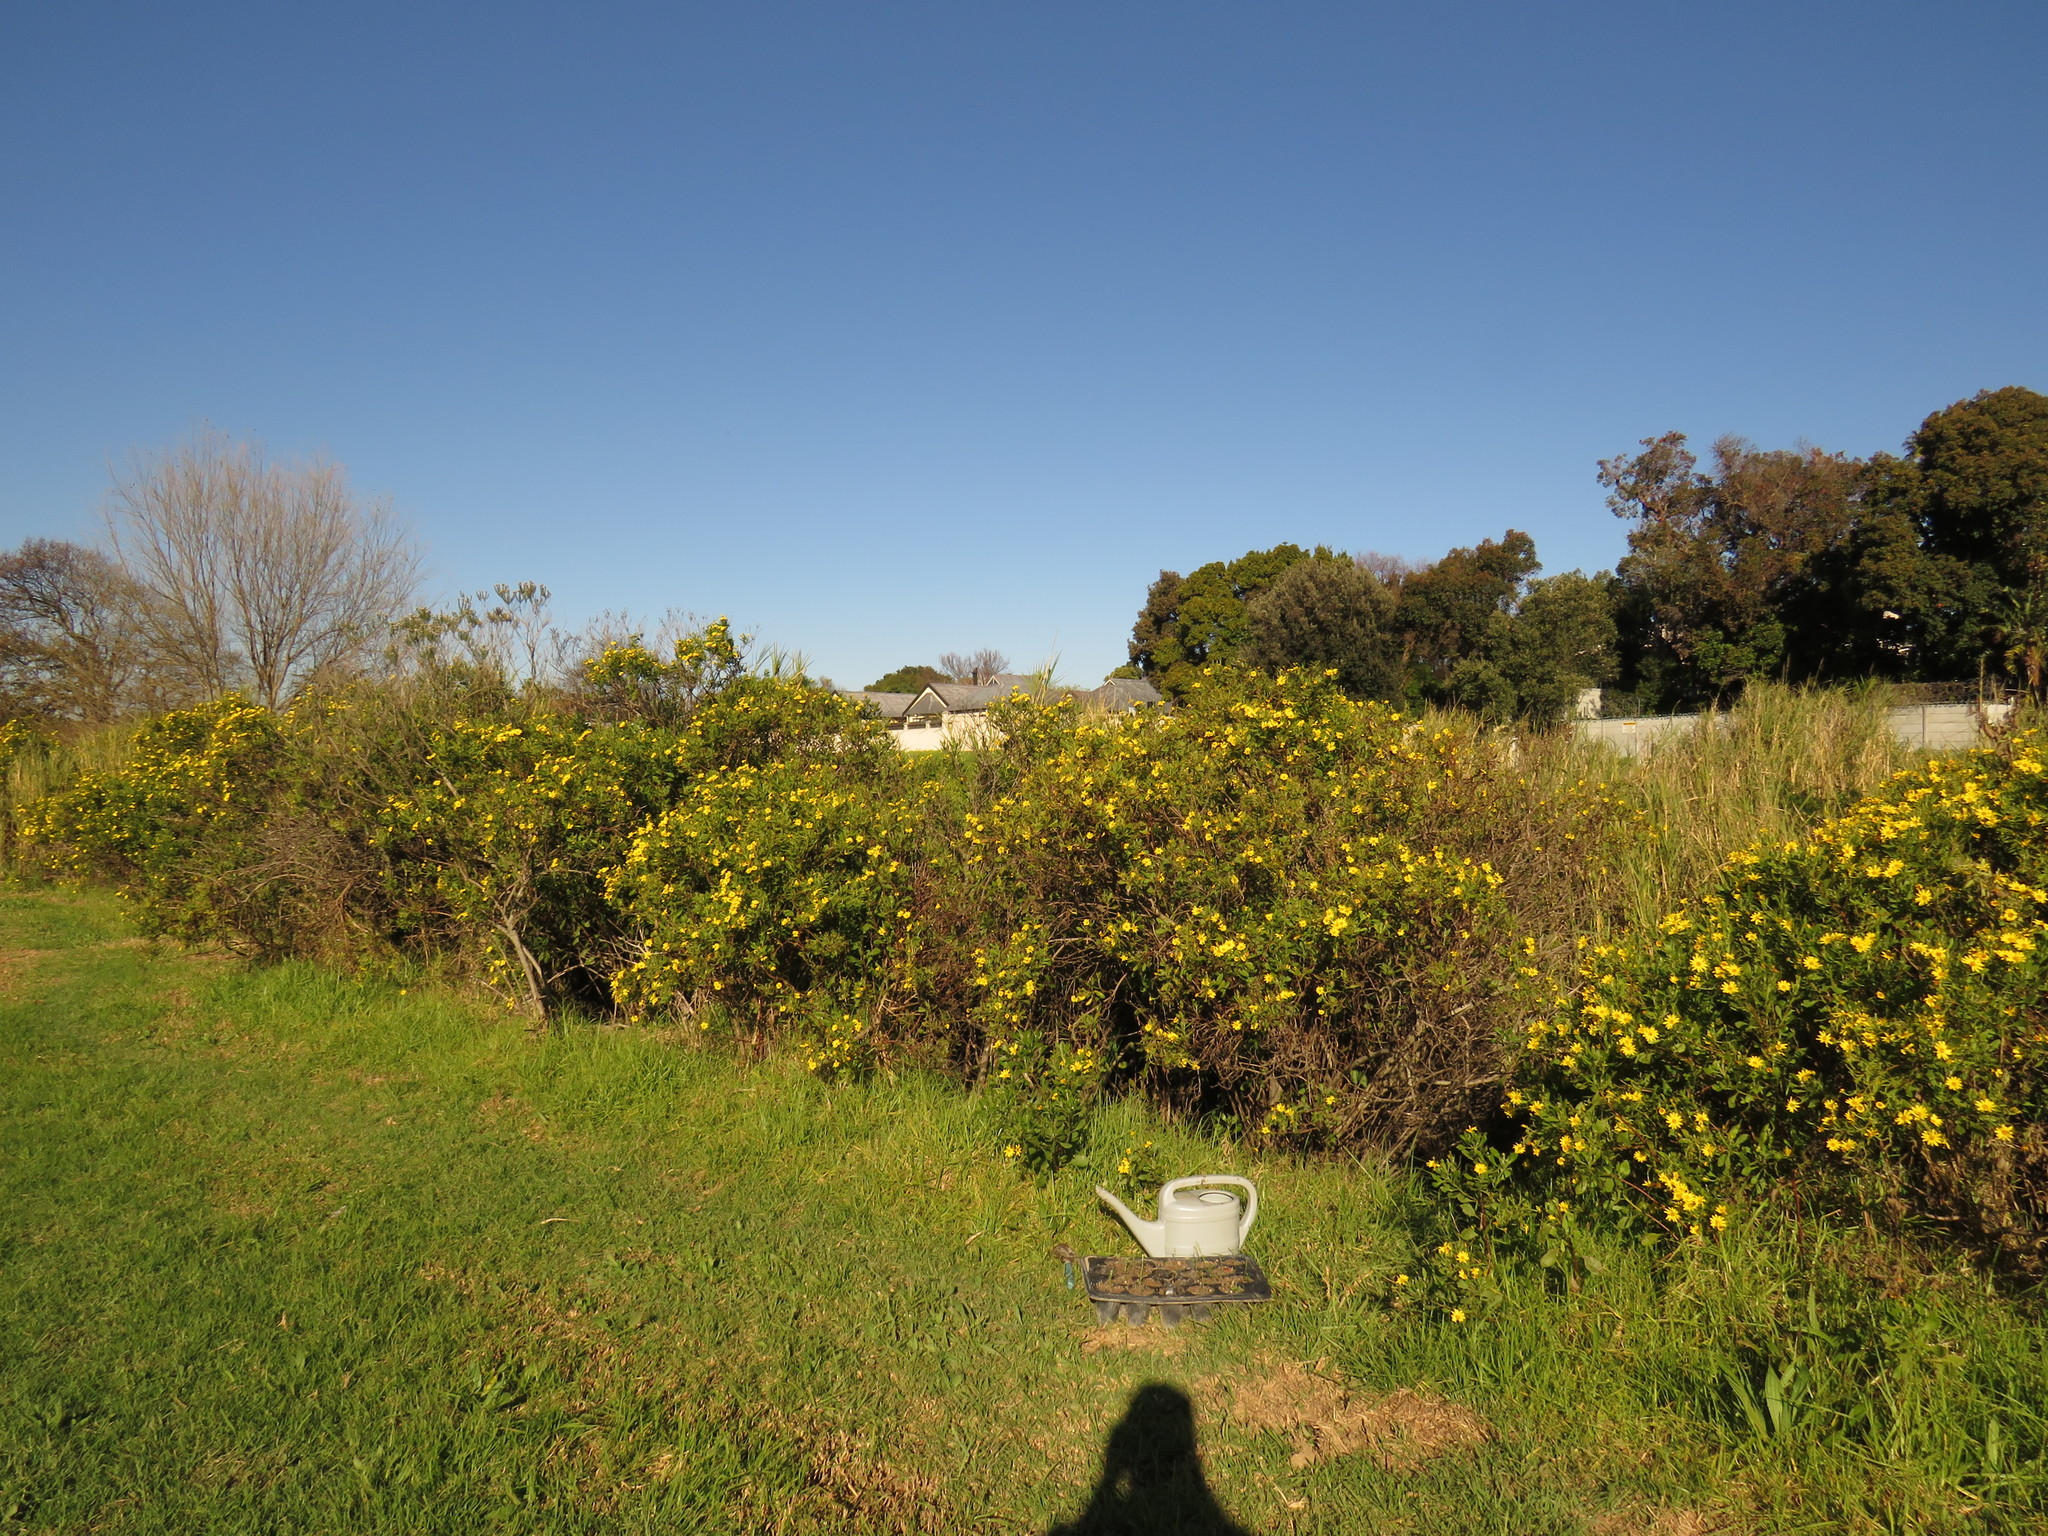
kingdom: Plantae
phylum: Tracheophyta
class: Magnoliopsida
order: Fabales
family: Fabaceae
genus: Psoralea
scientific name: Psoralea fascicularis
